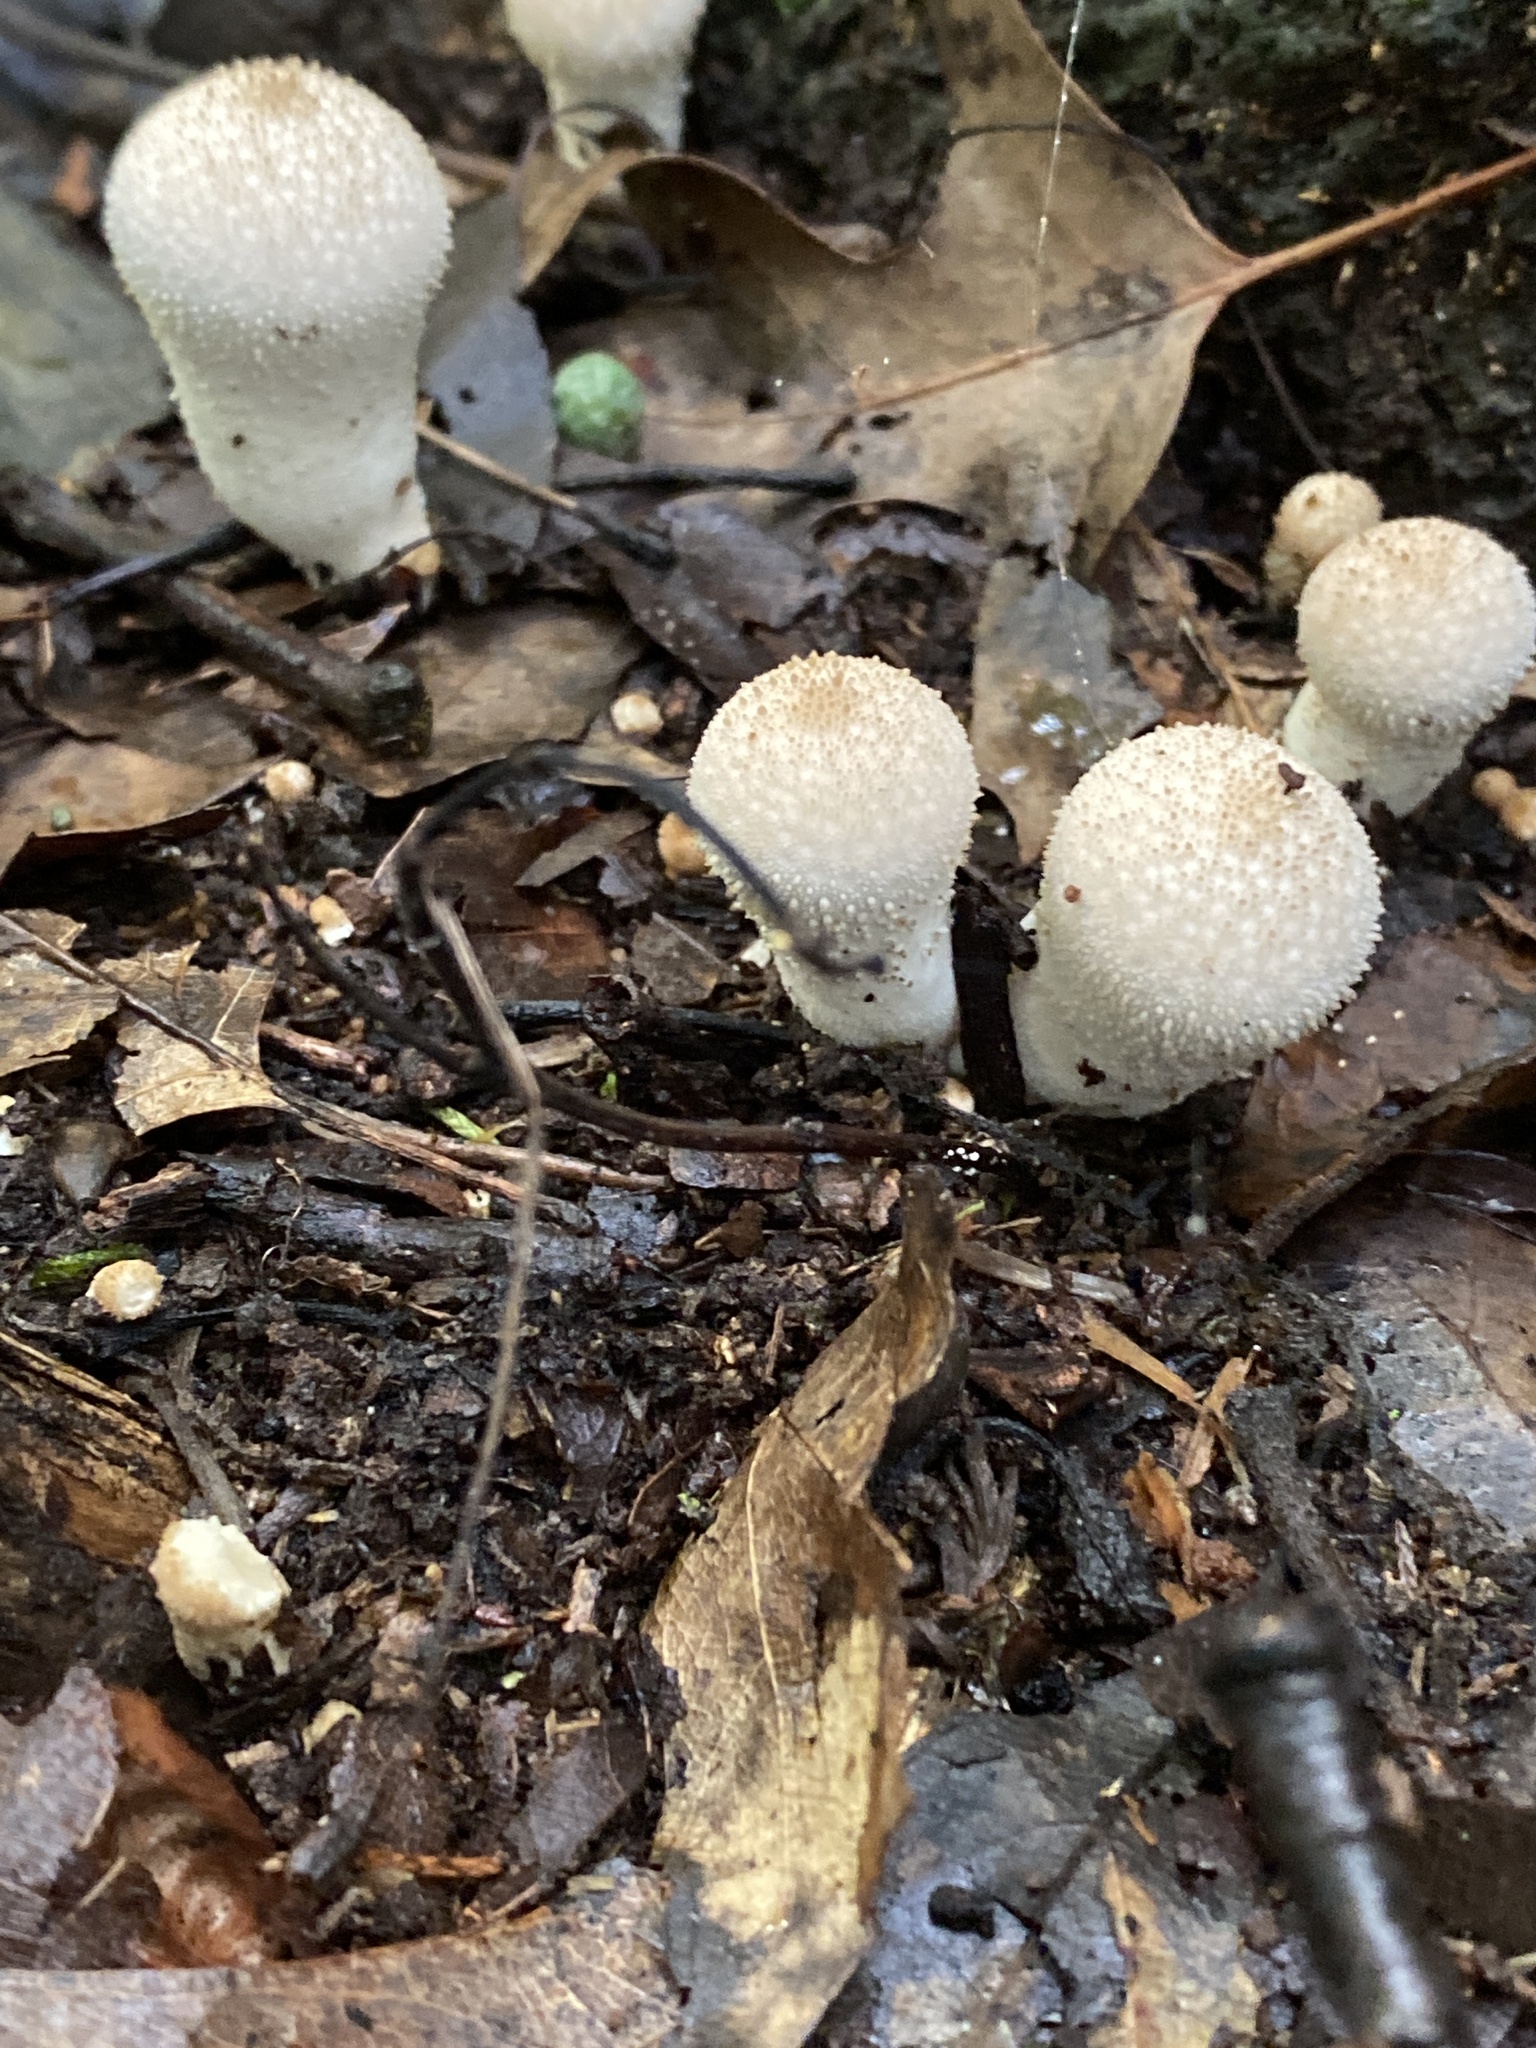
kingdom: Fungi
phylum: Basidiomycota
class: Agaricomycetes
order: Agaricales
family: Lycoperdaceae
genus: Lycoperdon
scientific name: Lycoperdon perlatum
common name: Common puffball
